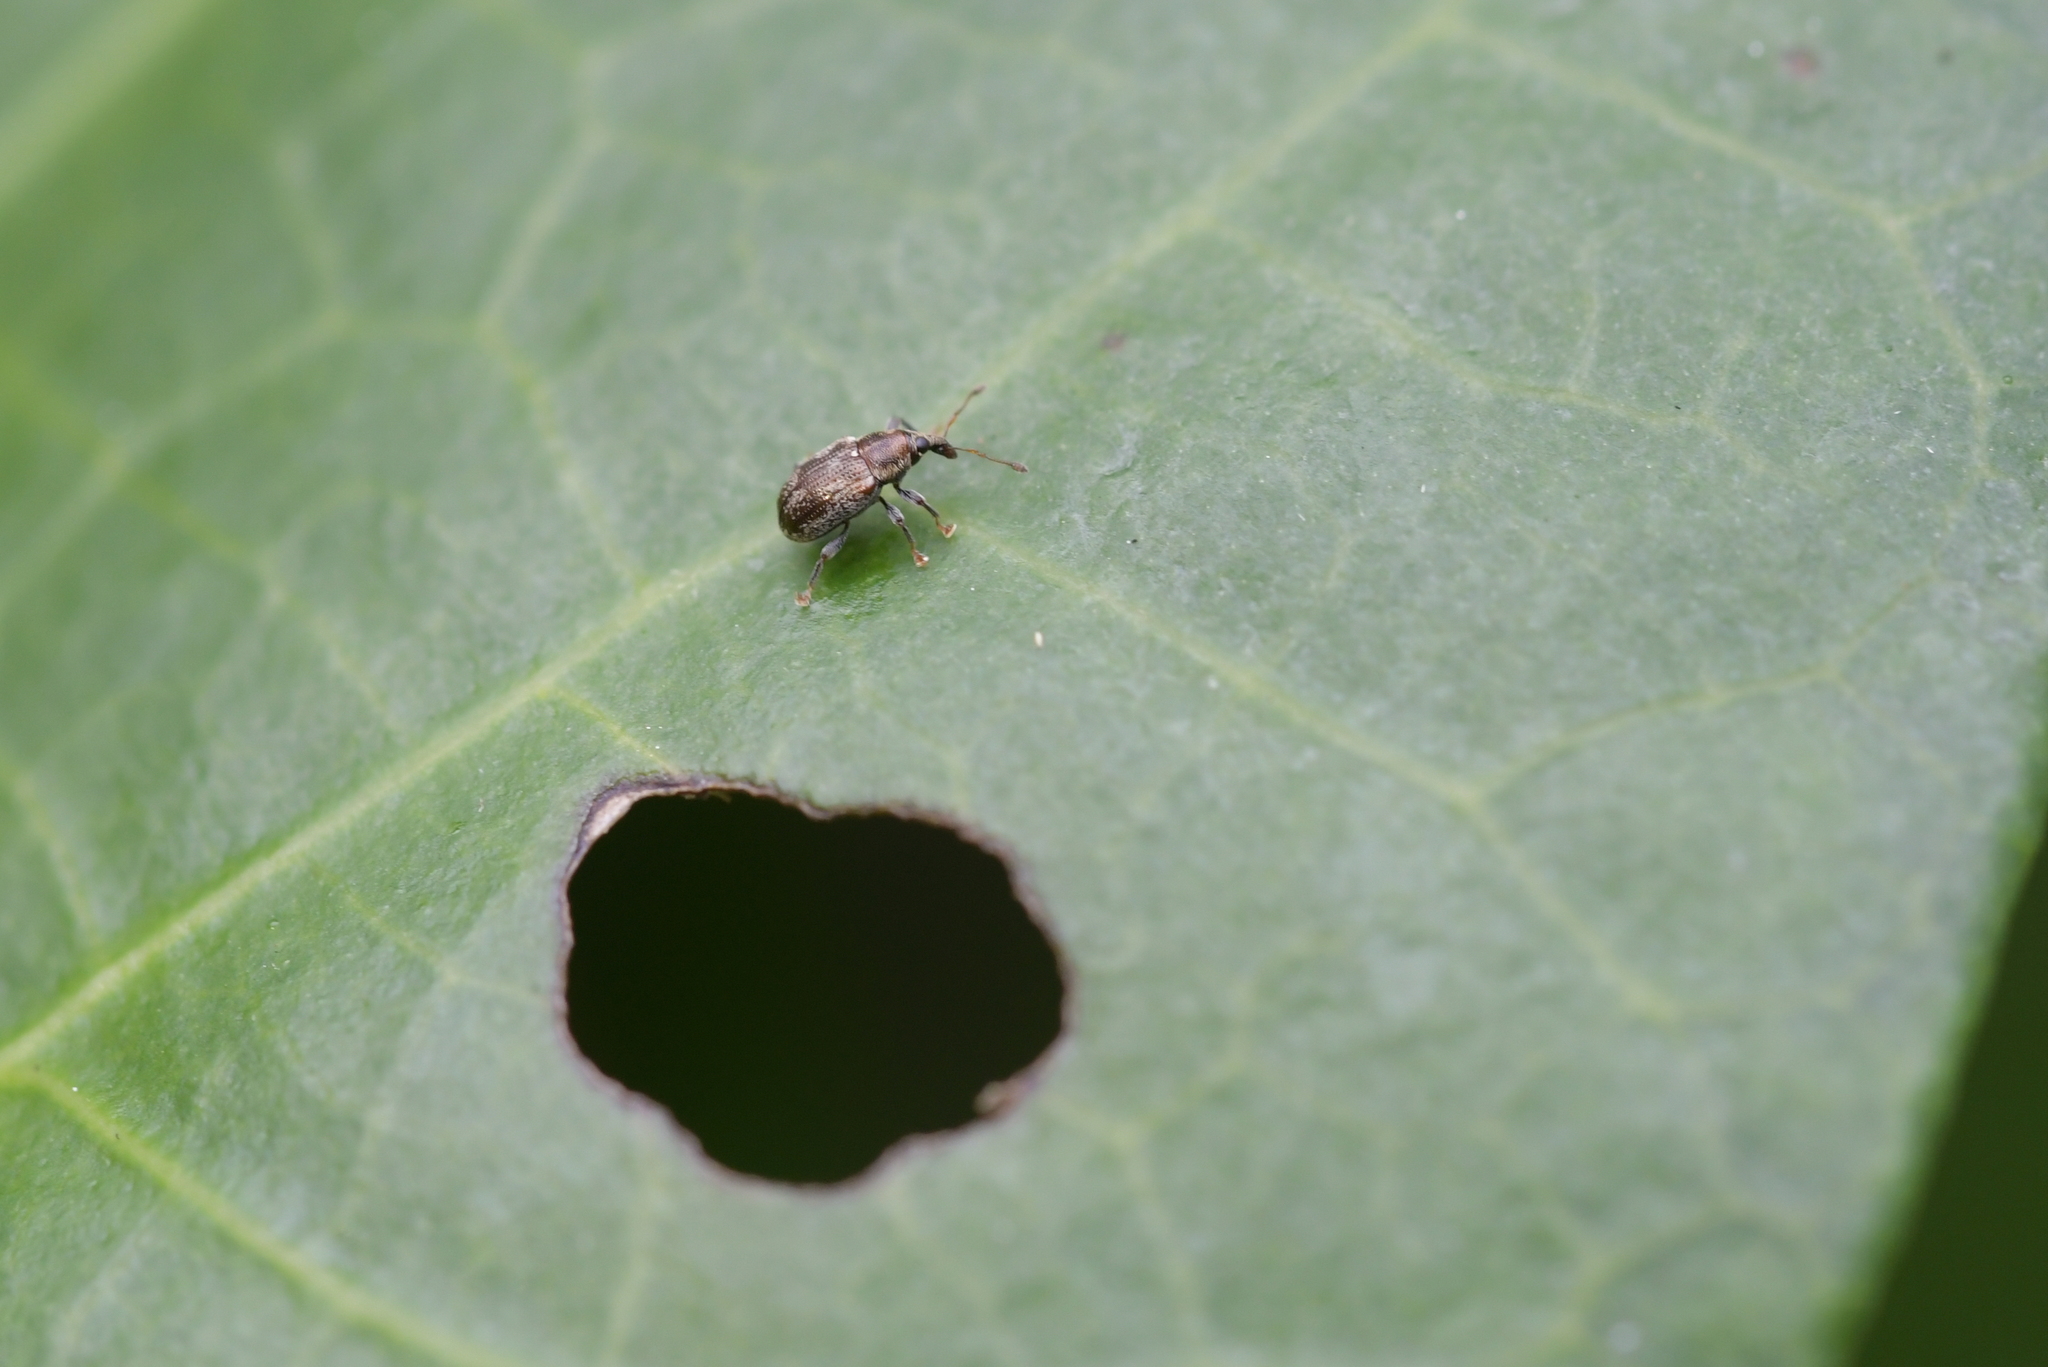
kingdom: Animalia
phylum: Arthropoda
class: Insecta
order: Coleoptera
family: Curculionidae
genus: Neomycta
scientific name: Neomycta rubida
